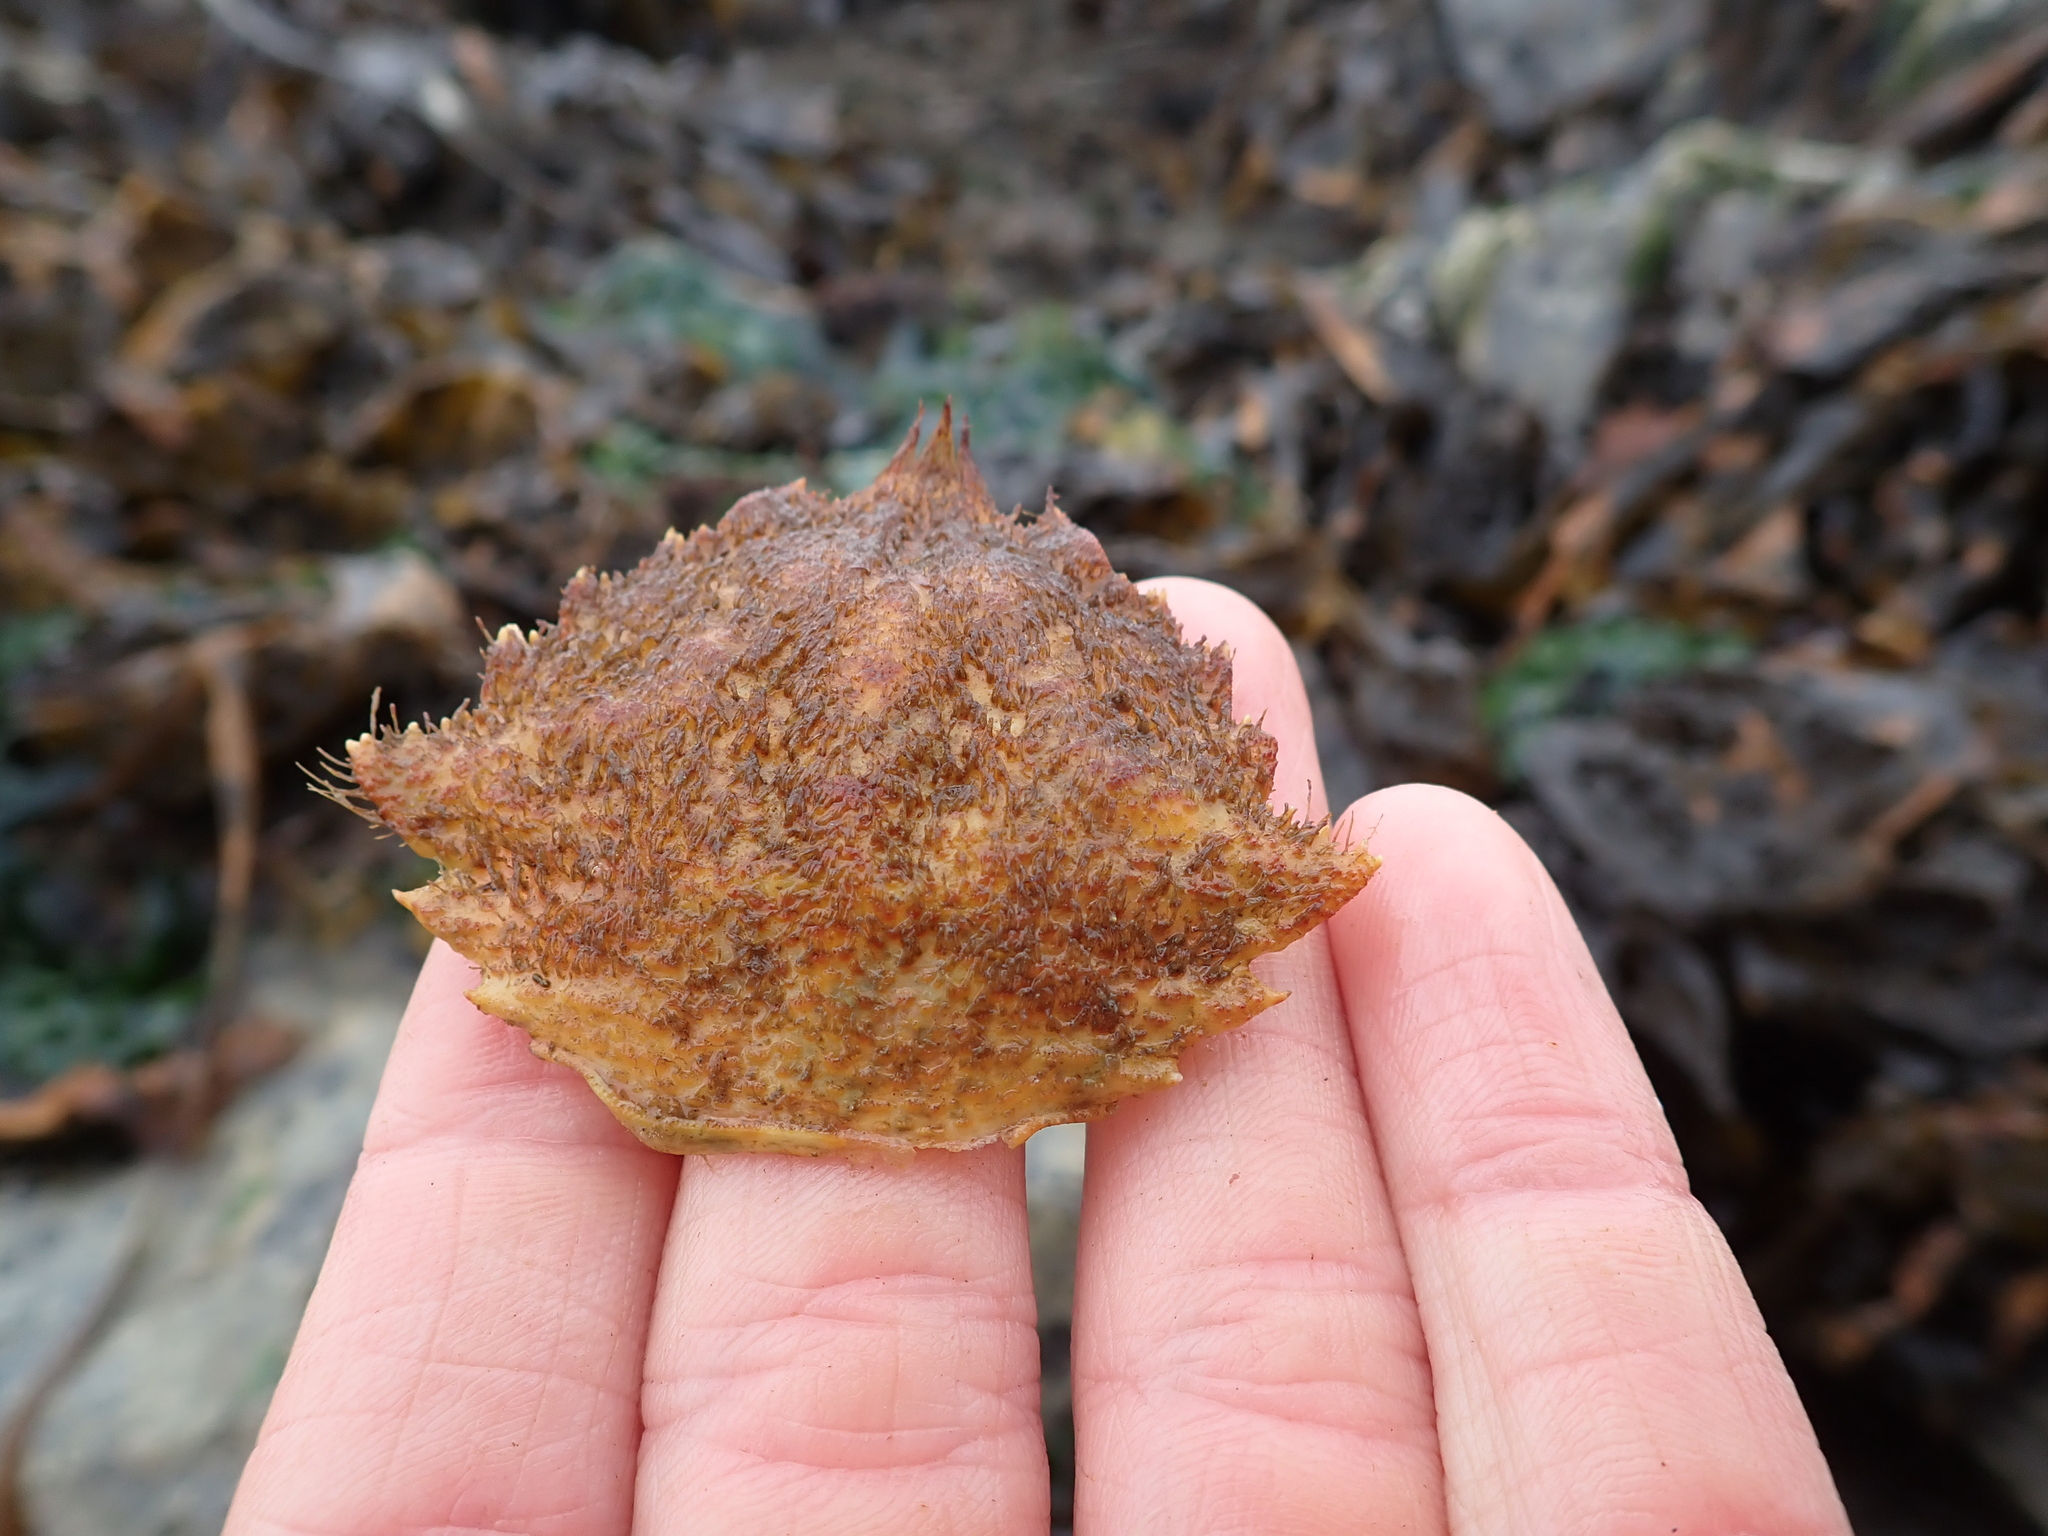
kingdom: Animalia
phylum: Arthropoda
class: Malacostraca
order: Decapoda
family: Cheiragonidae
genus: Telmessus
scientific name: Telmessus cheiragonus
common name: Helmet crab
